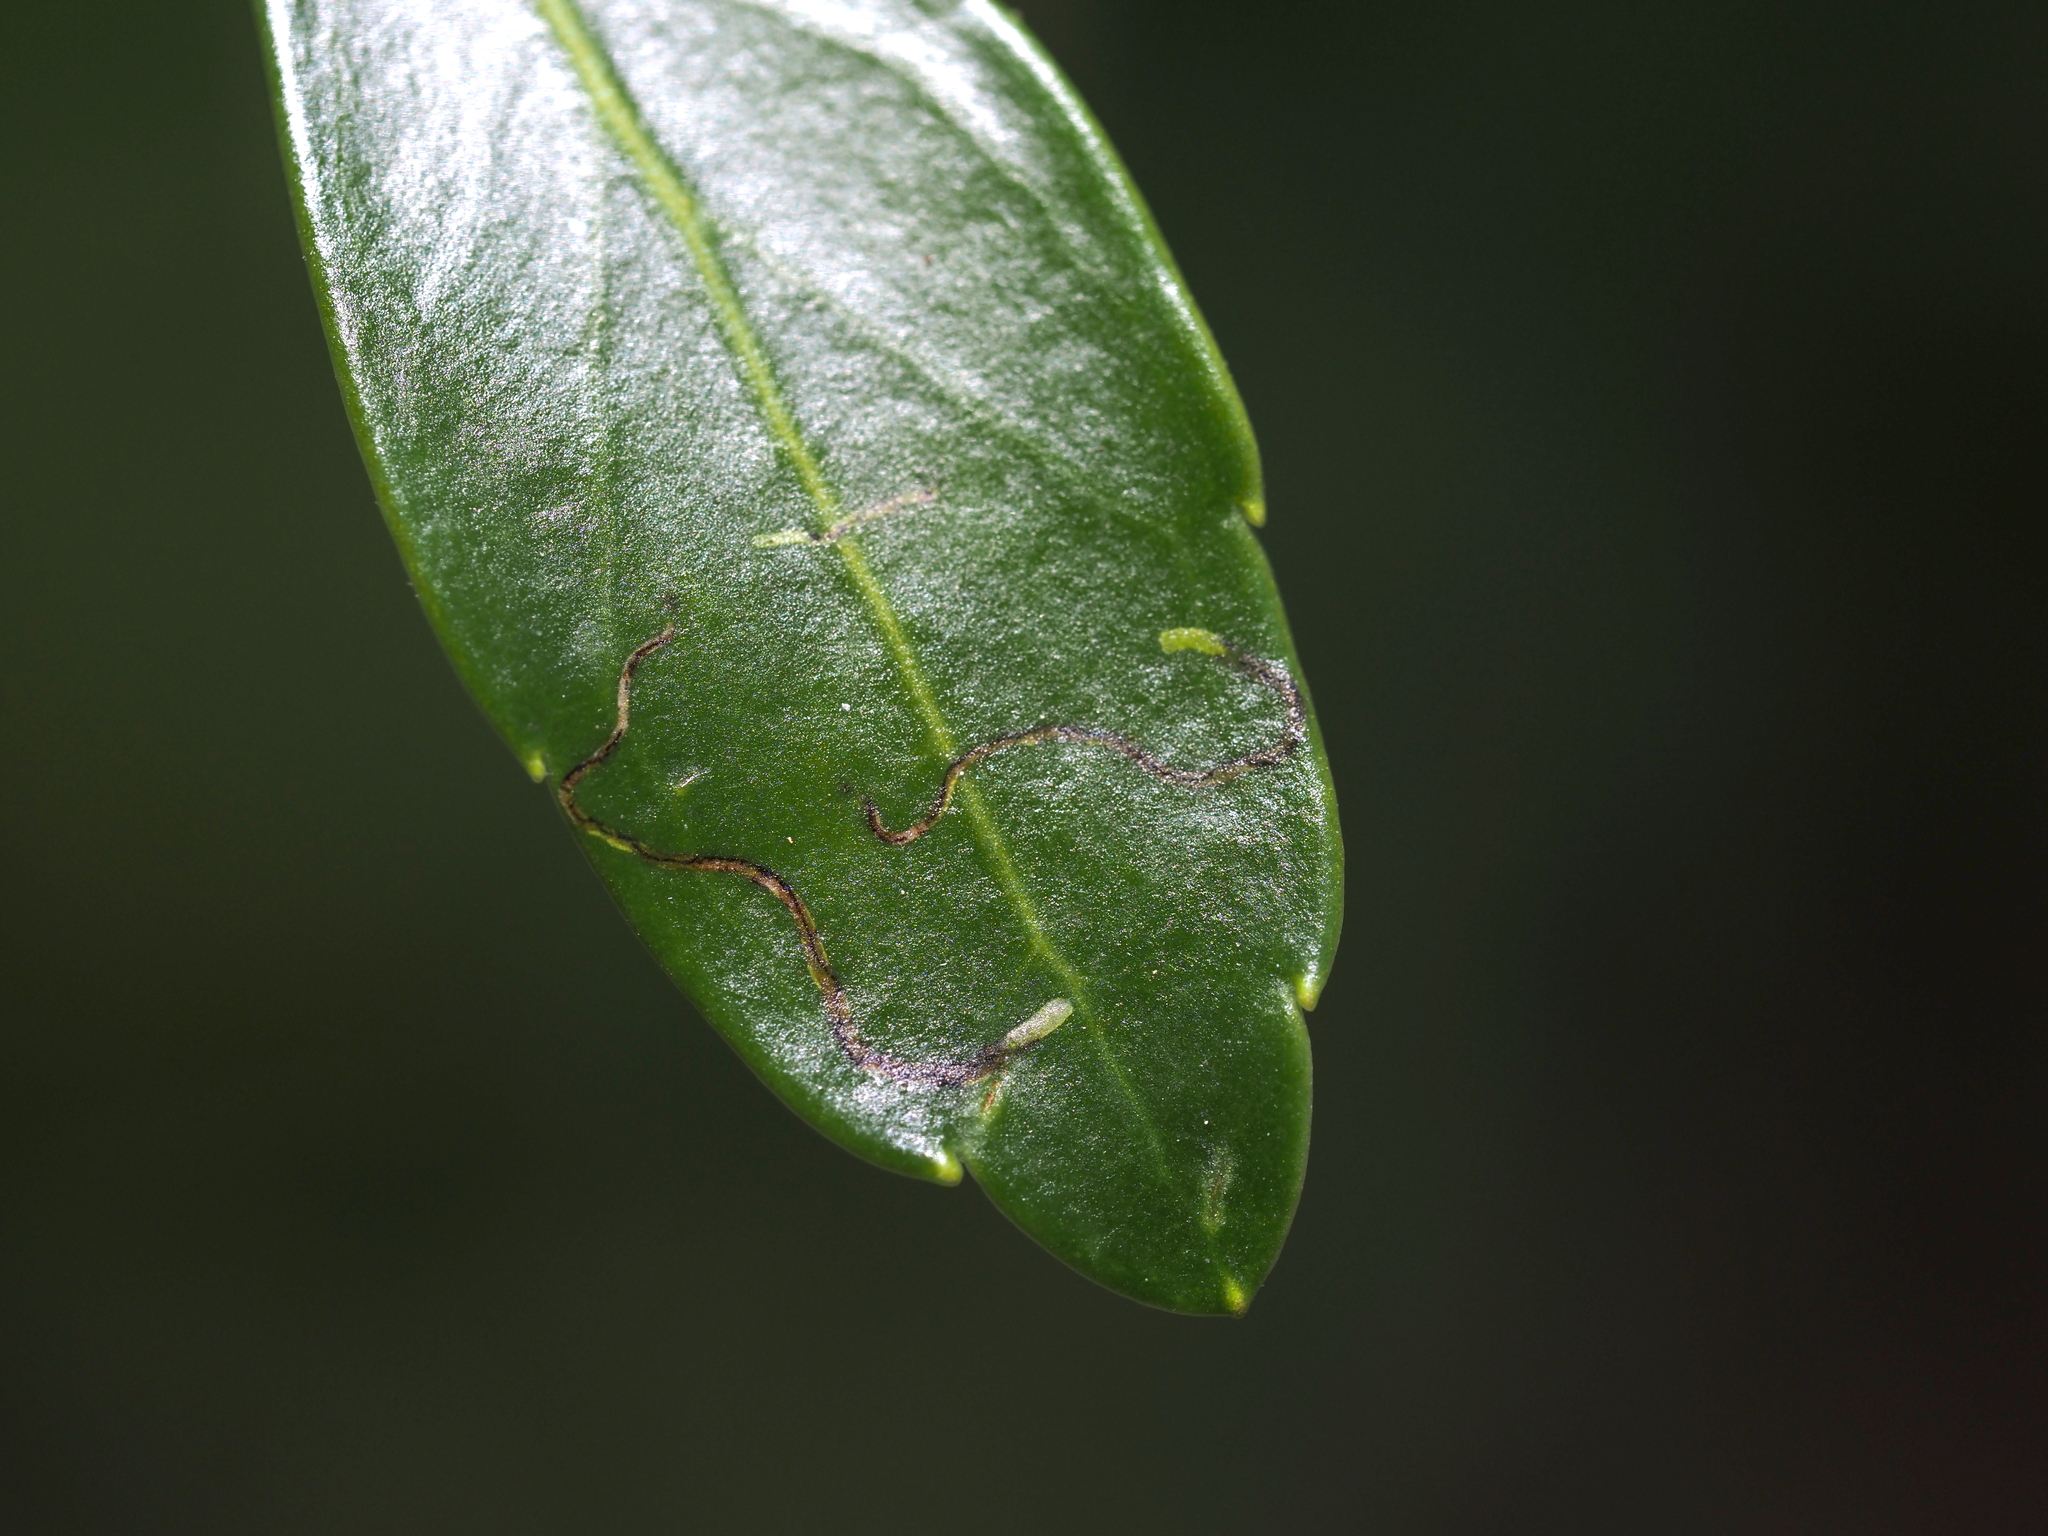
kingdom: Animalia
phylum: Arthropoda
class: Insecta
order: Diptera
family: Agromyzidae
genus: Phytomyza
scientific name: Phytomyza glabricola
